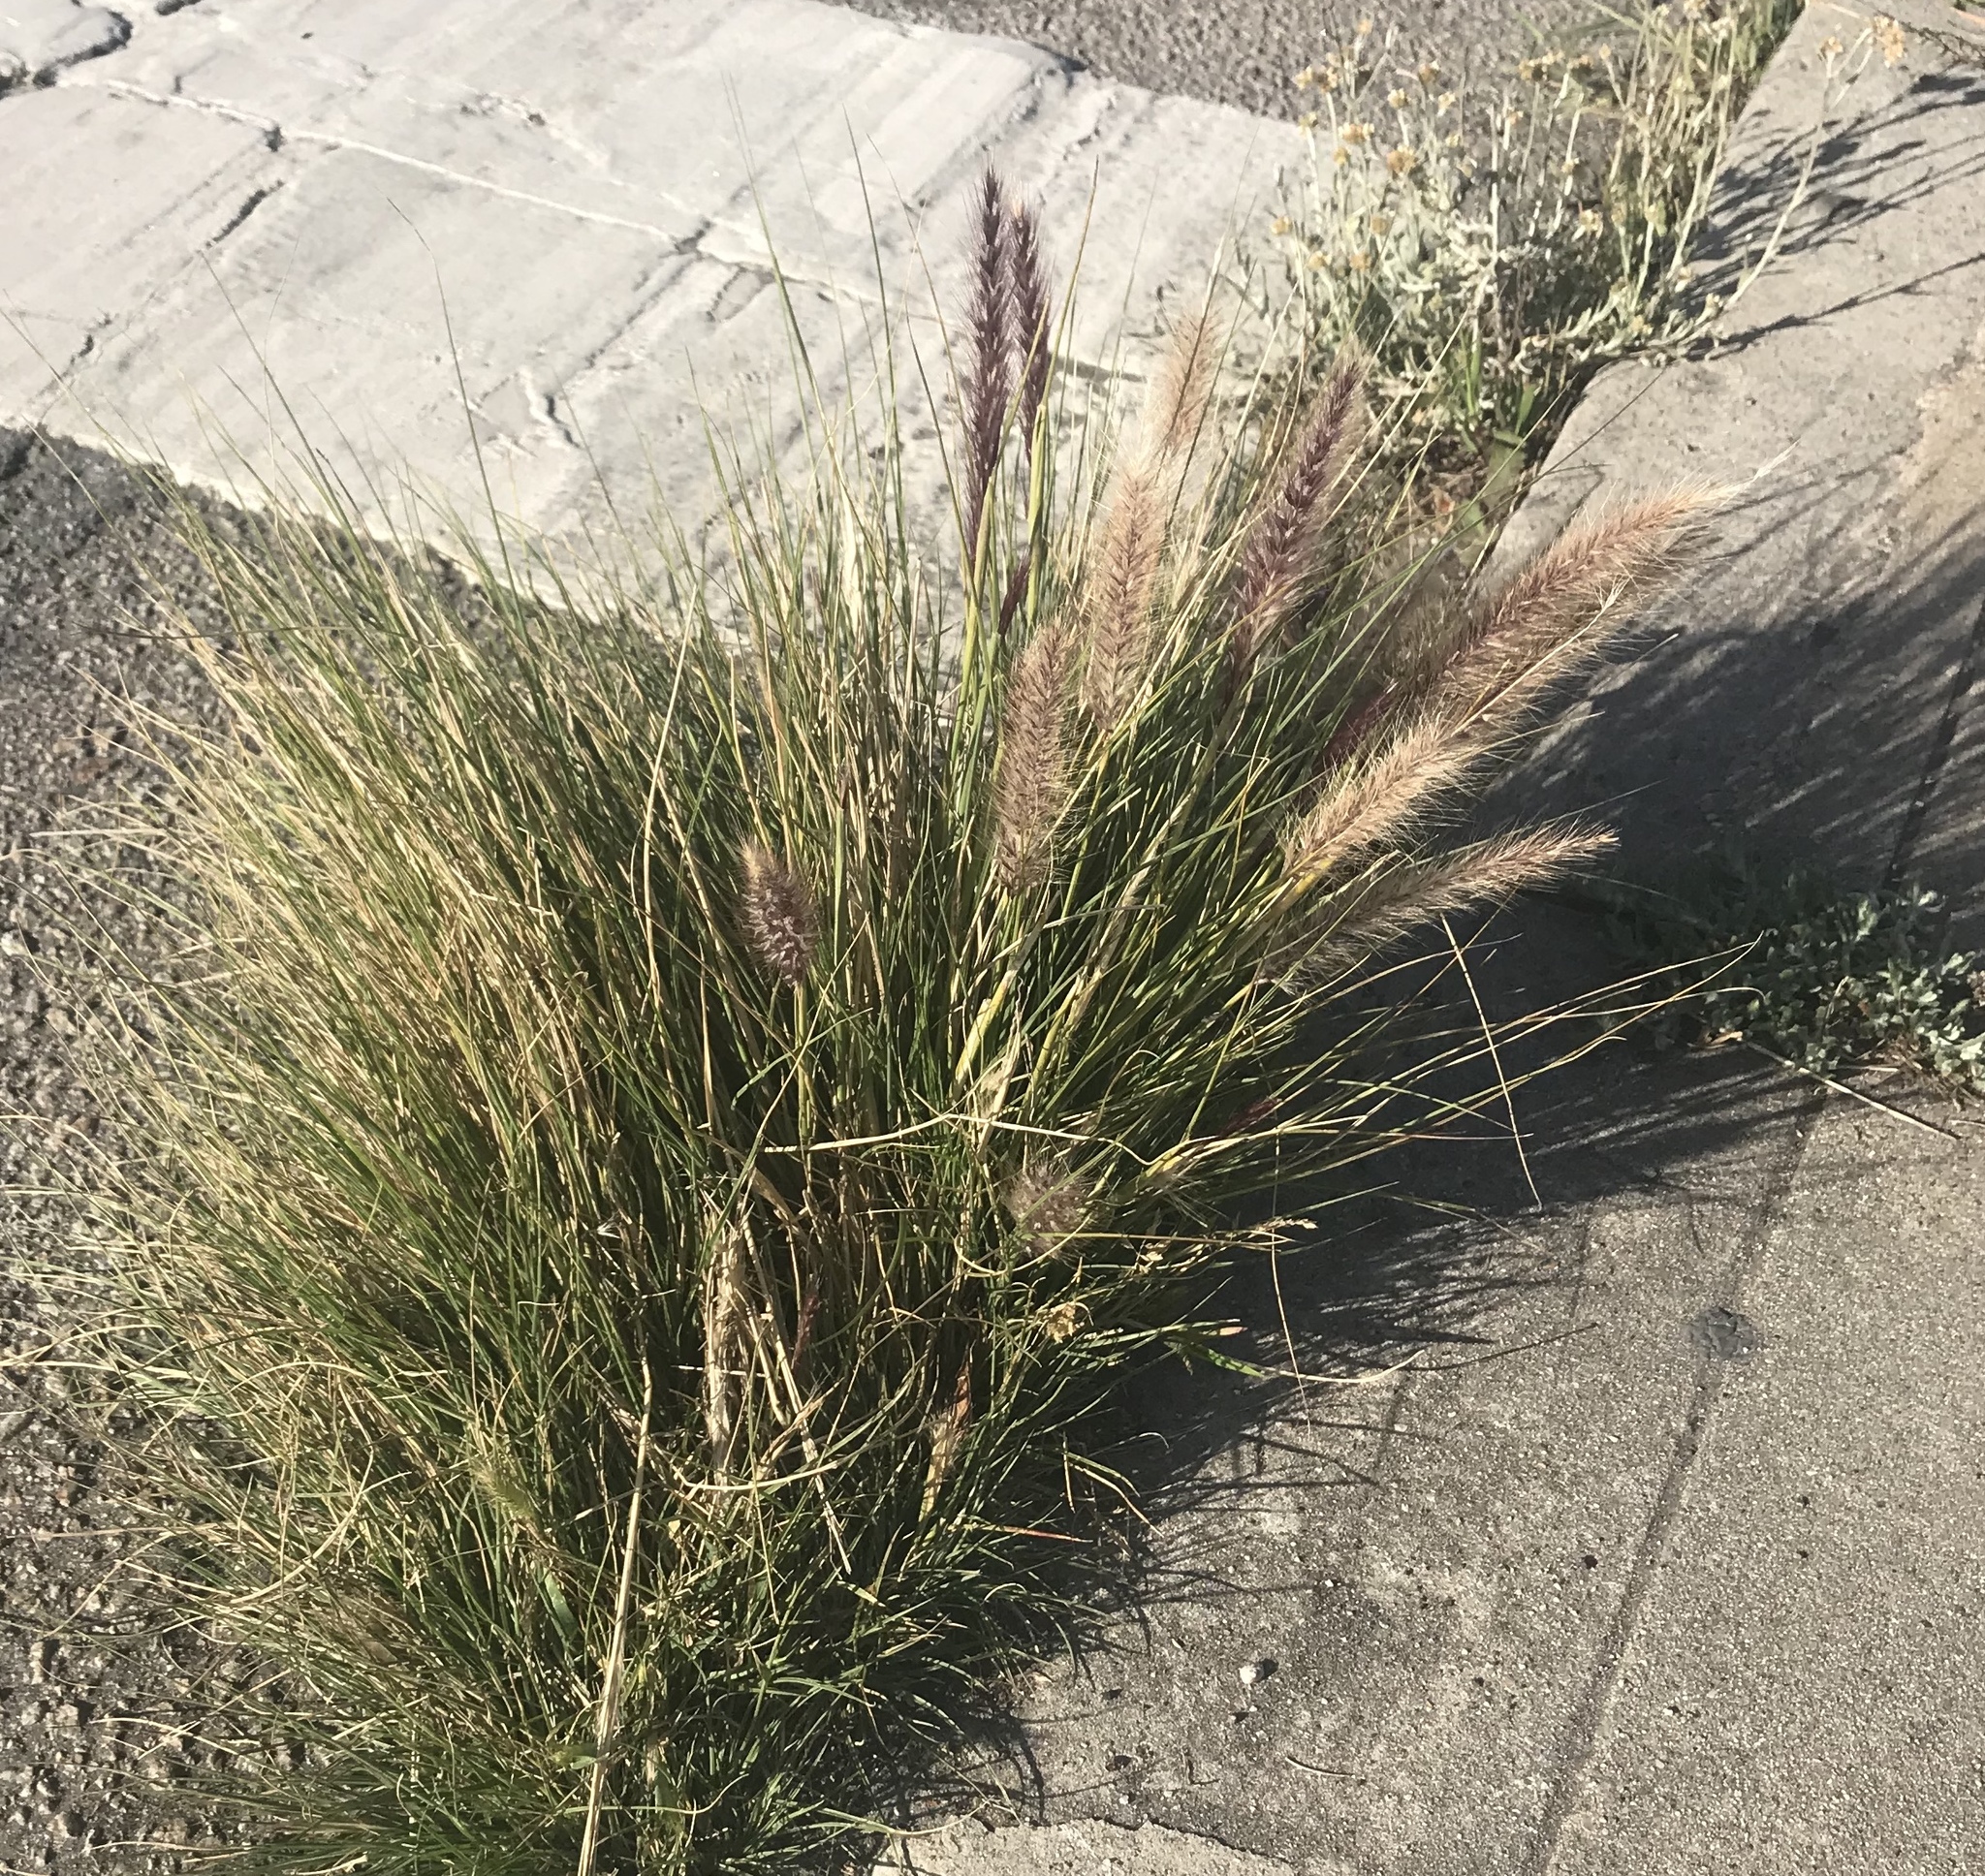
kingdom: Plantae
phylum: Tracheophyta
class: Liliopsida
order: Poales
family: Poaceae
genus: Cenchrus
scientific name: Cenchrus setaceus
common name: Crimson fountaingrass
